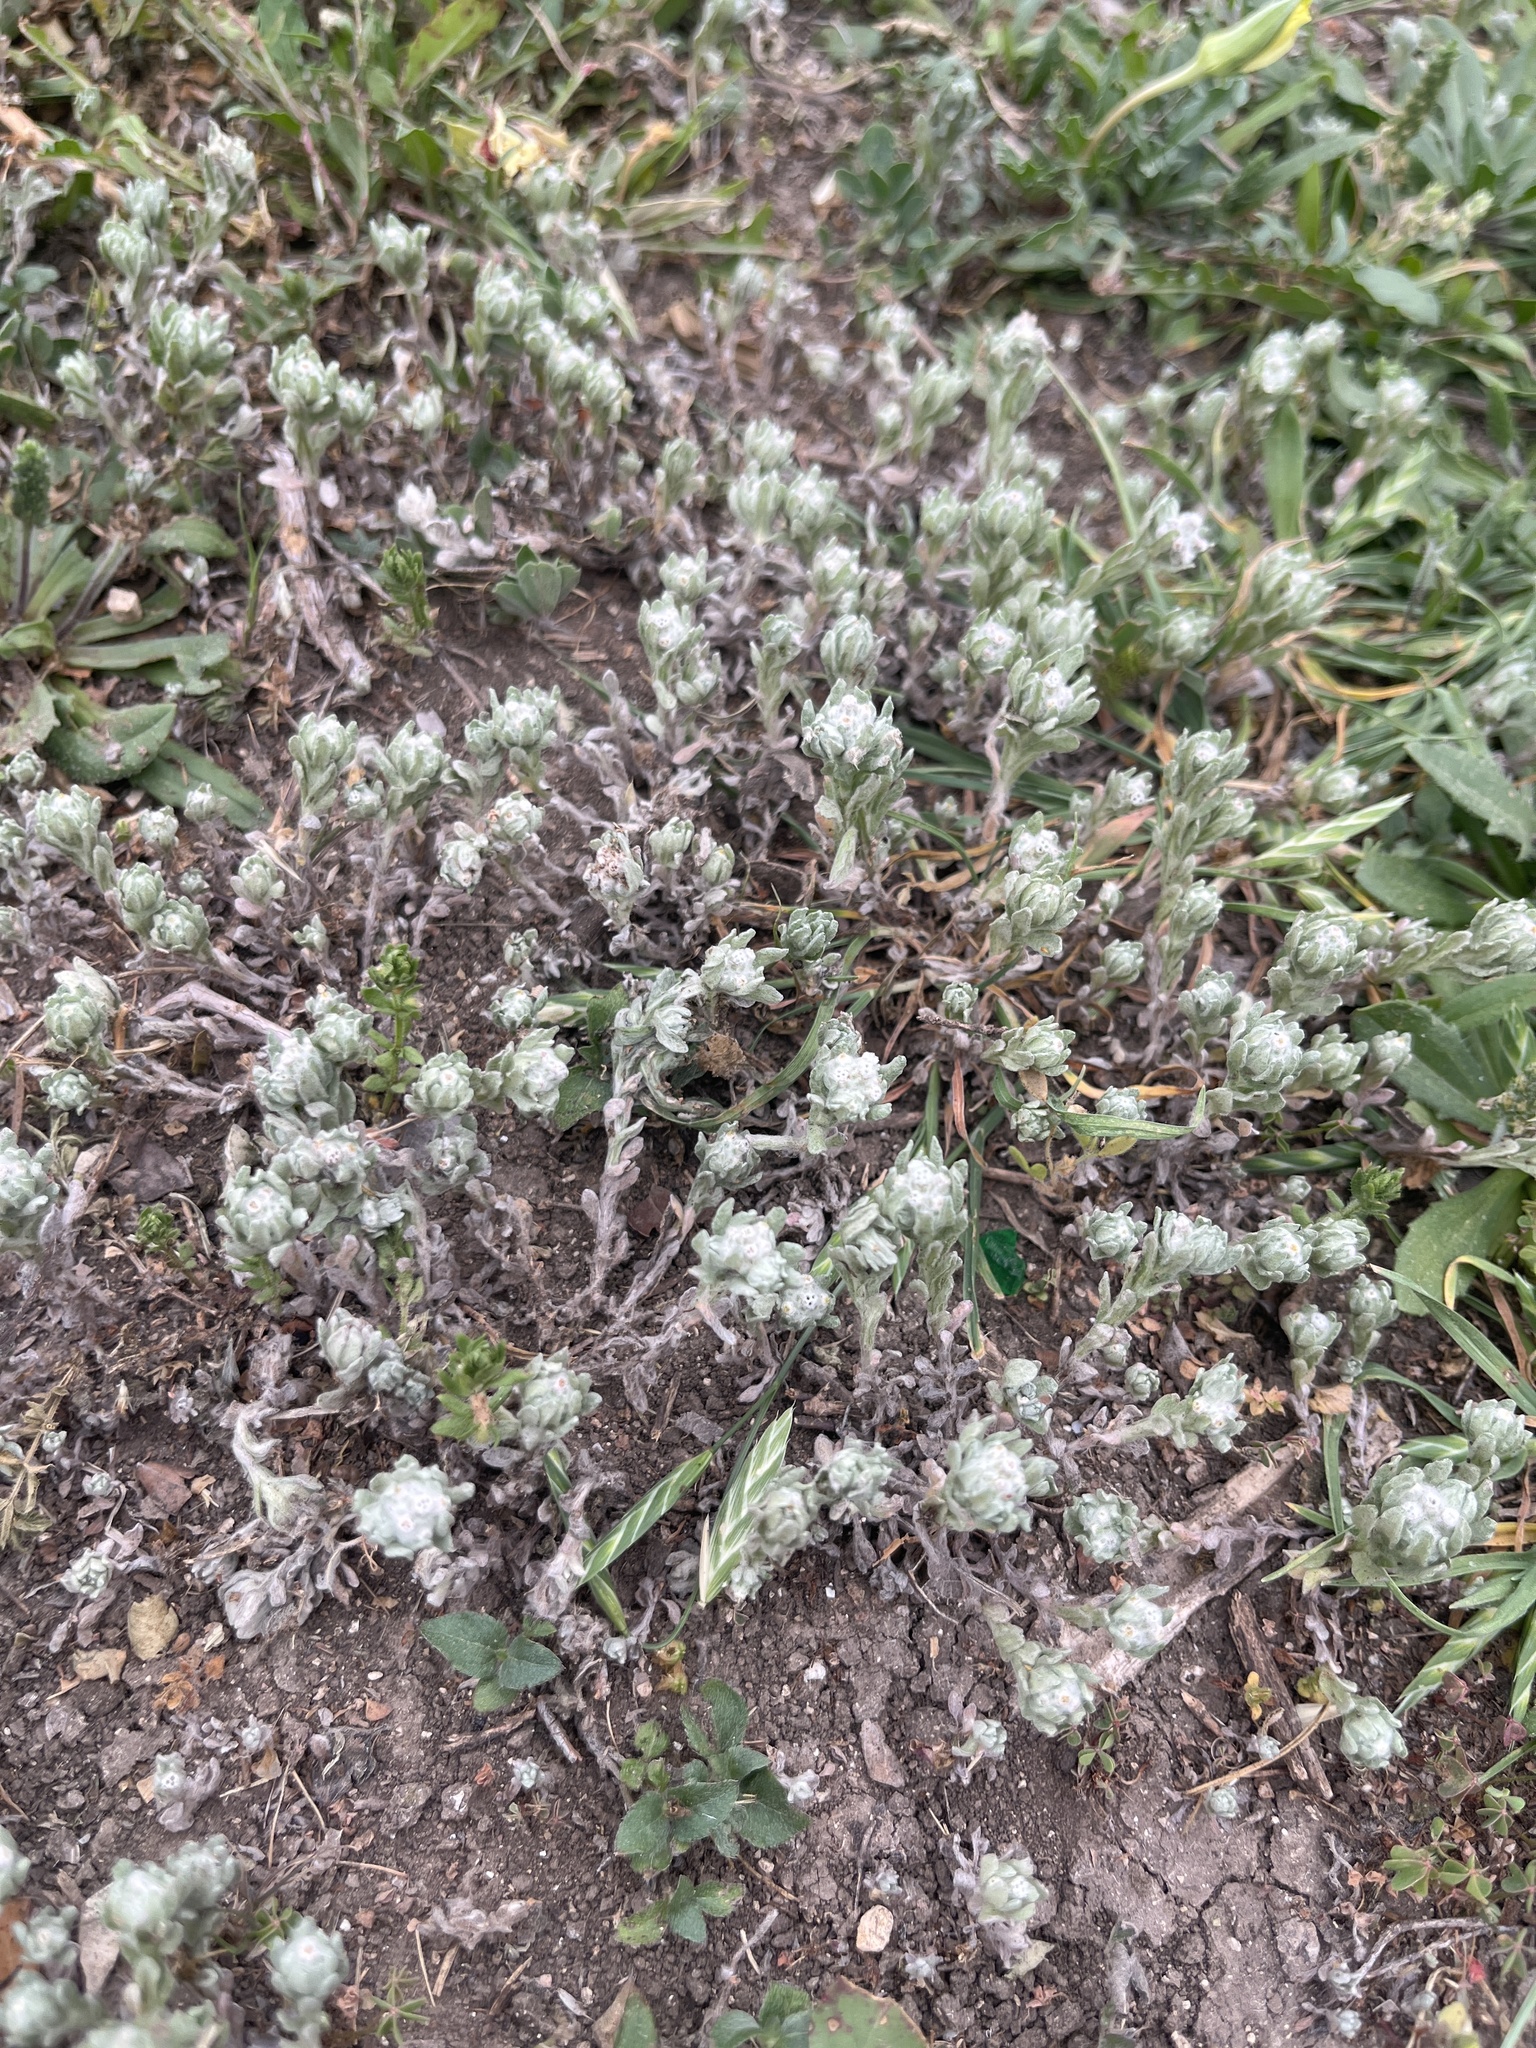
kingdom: Plantae
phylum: Tracheophyta
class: Magnoliopsida
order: Asterales
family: Asteraceae
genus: Diaperia
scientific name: Diaperia verna
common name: Many-stem rabbit-tobacco
